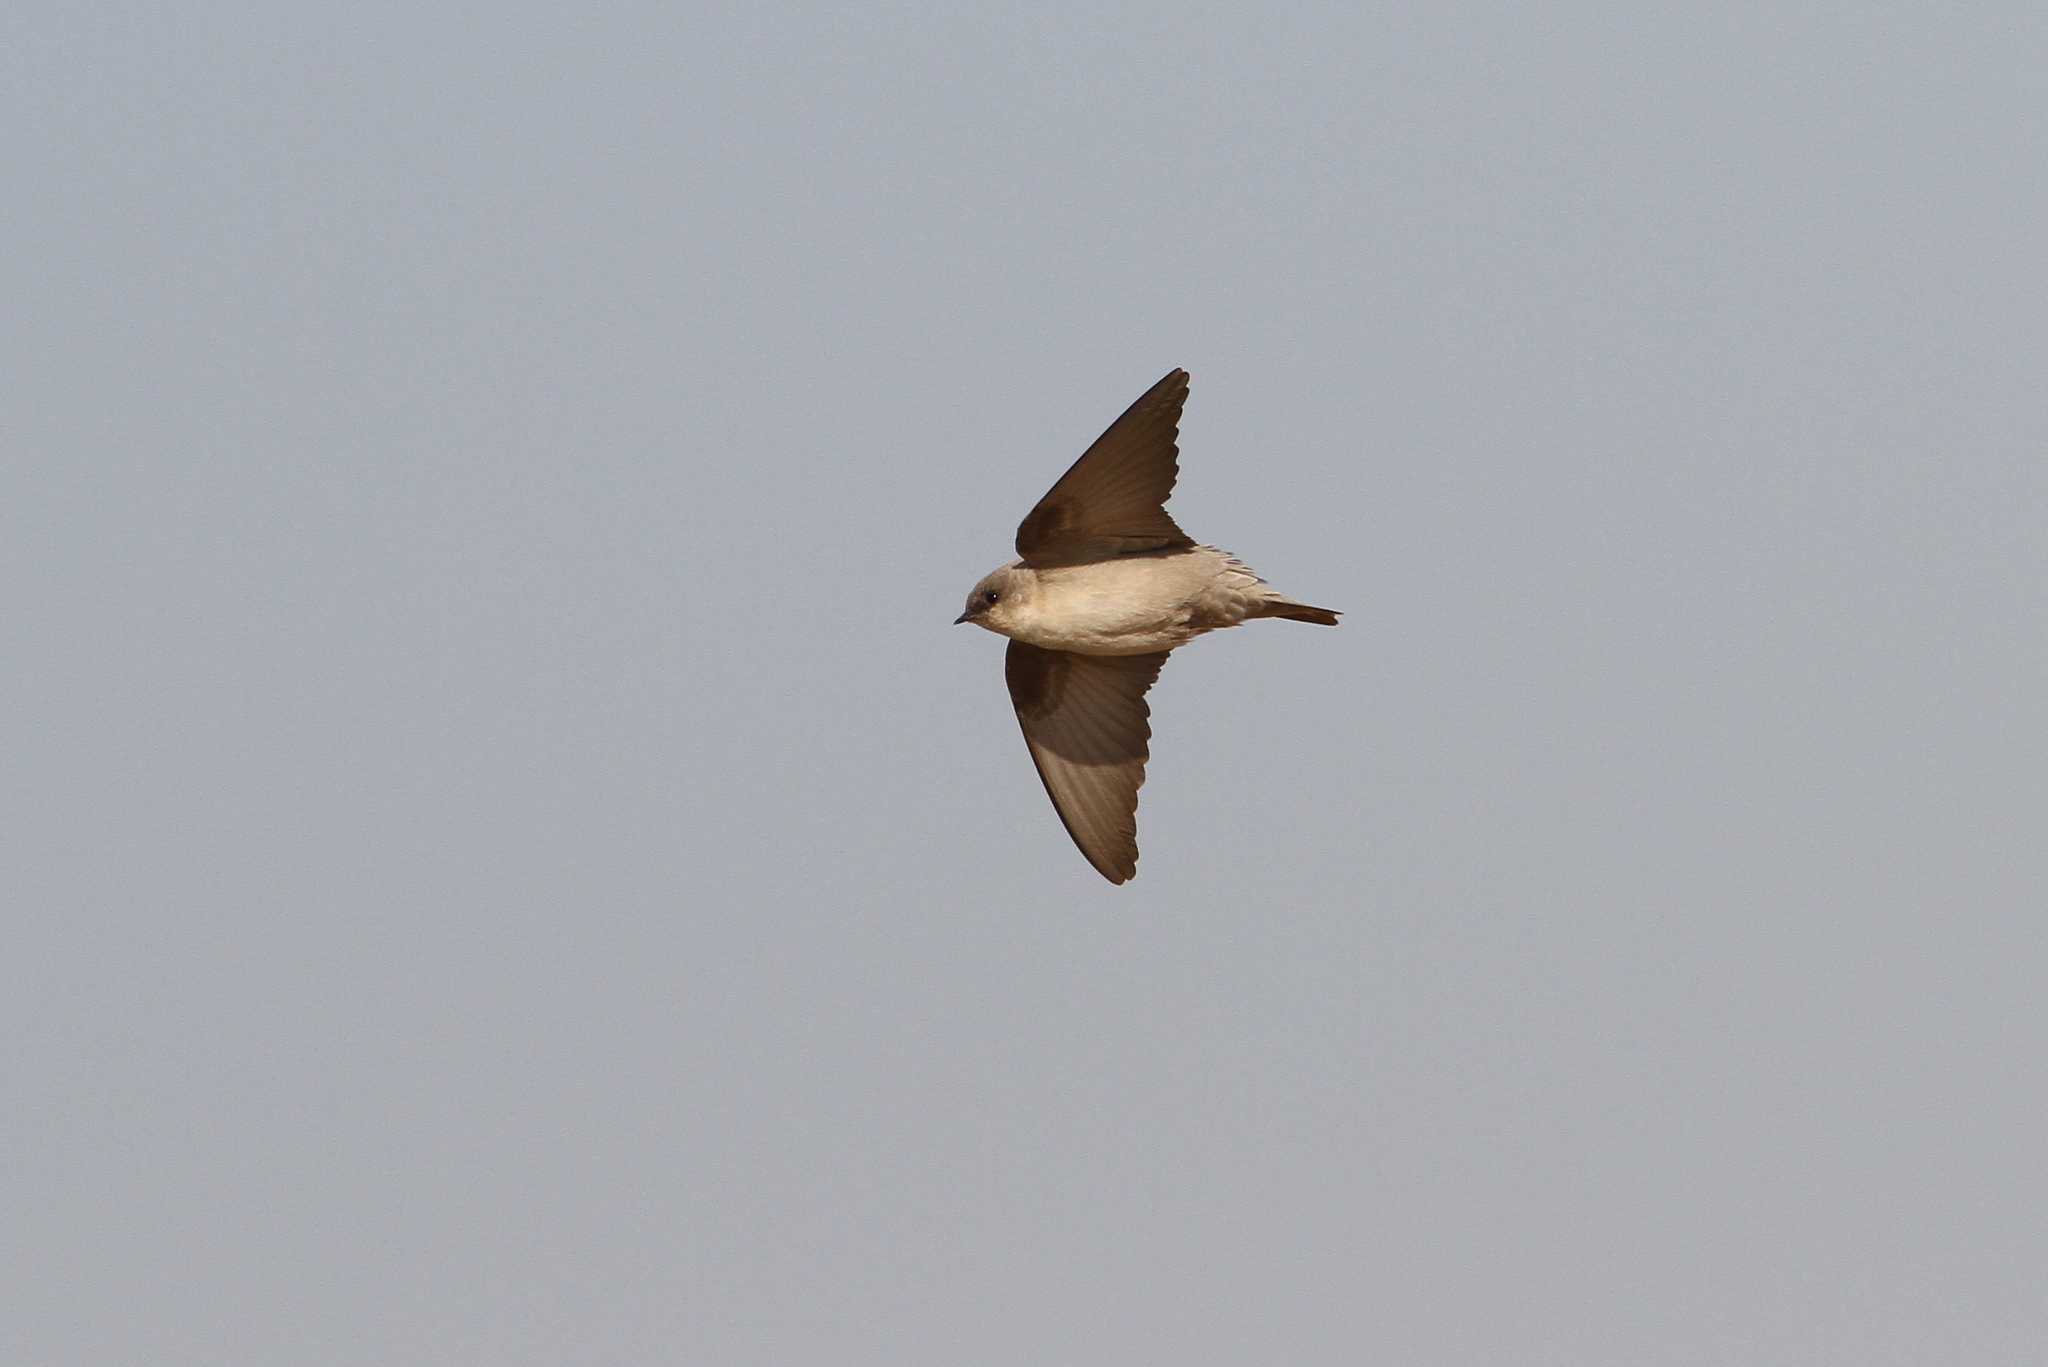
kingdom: Animalia
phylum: Chordata
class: Aves
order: Passeriformes
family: Hirundinidae
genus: Ptyonoprogne
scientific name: Ptyonoprogne fuligula
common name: Rock martin
